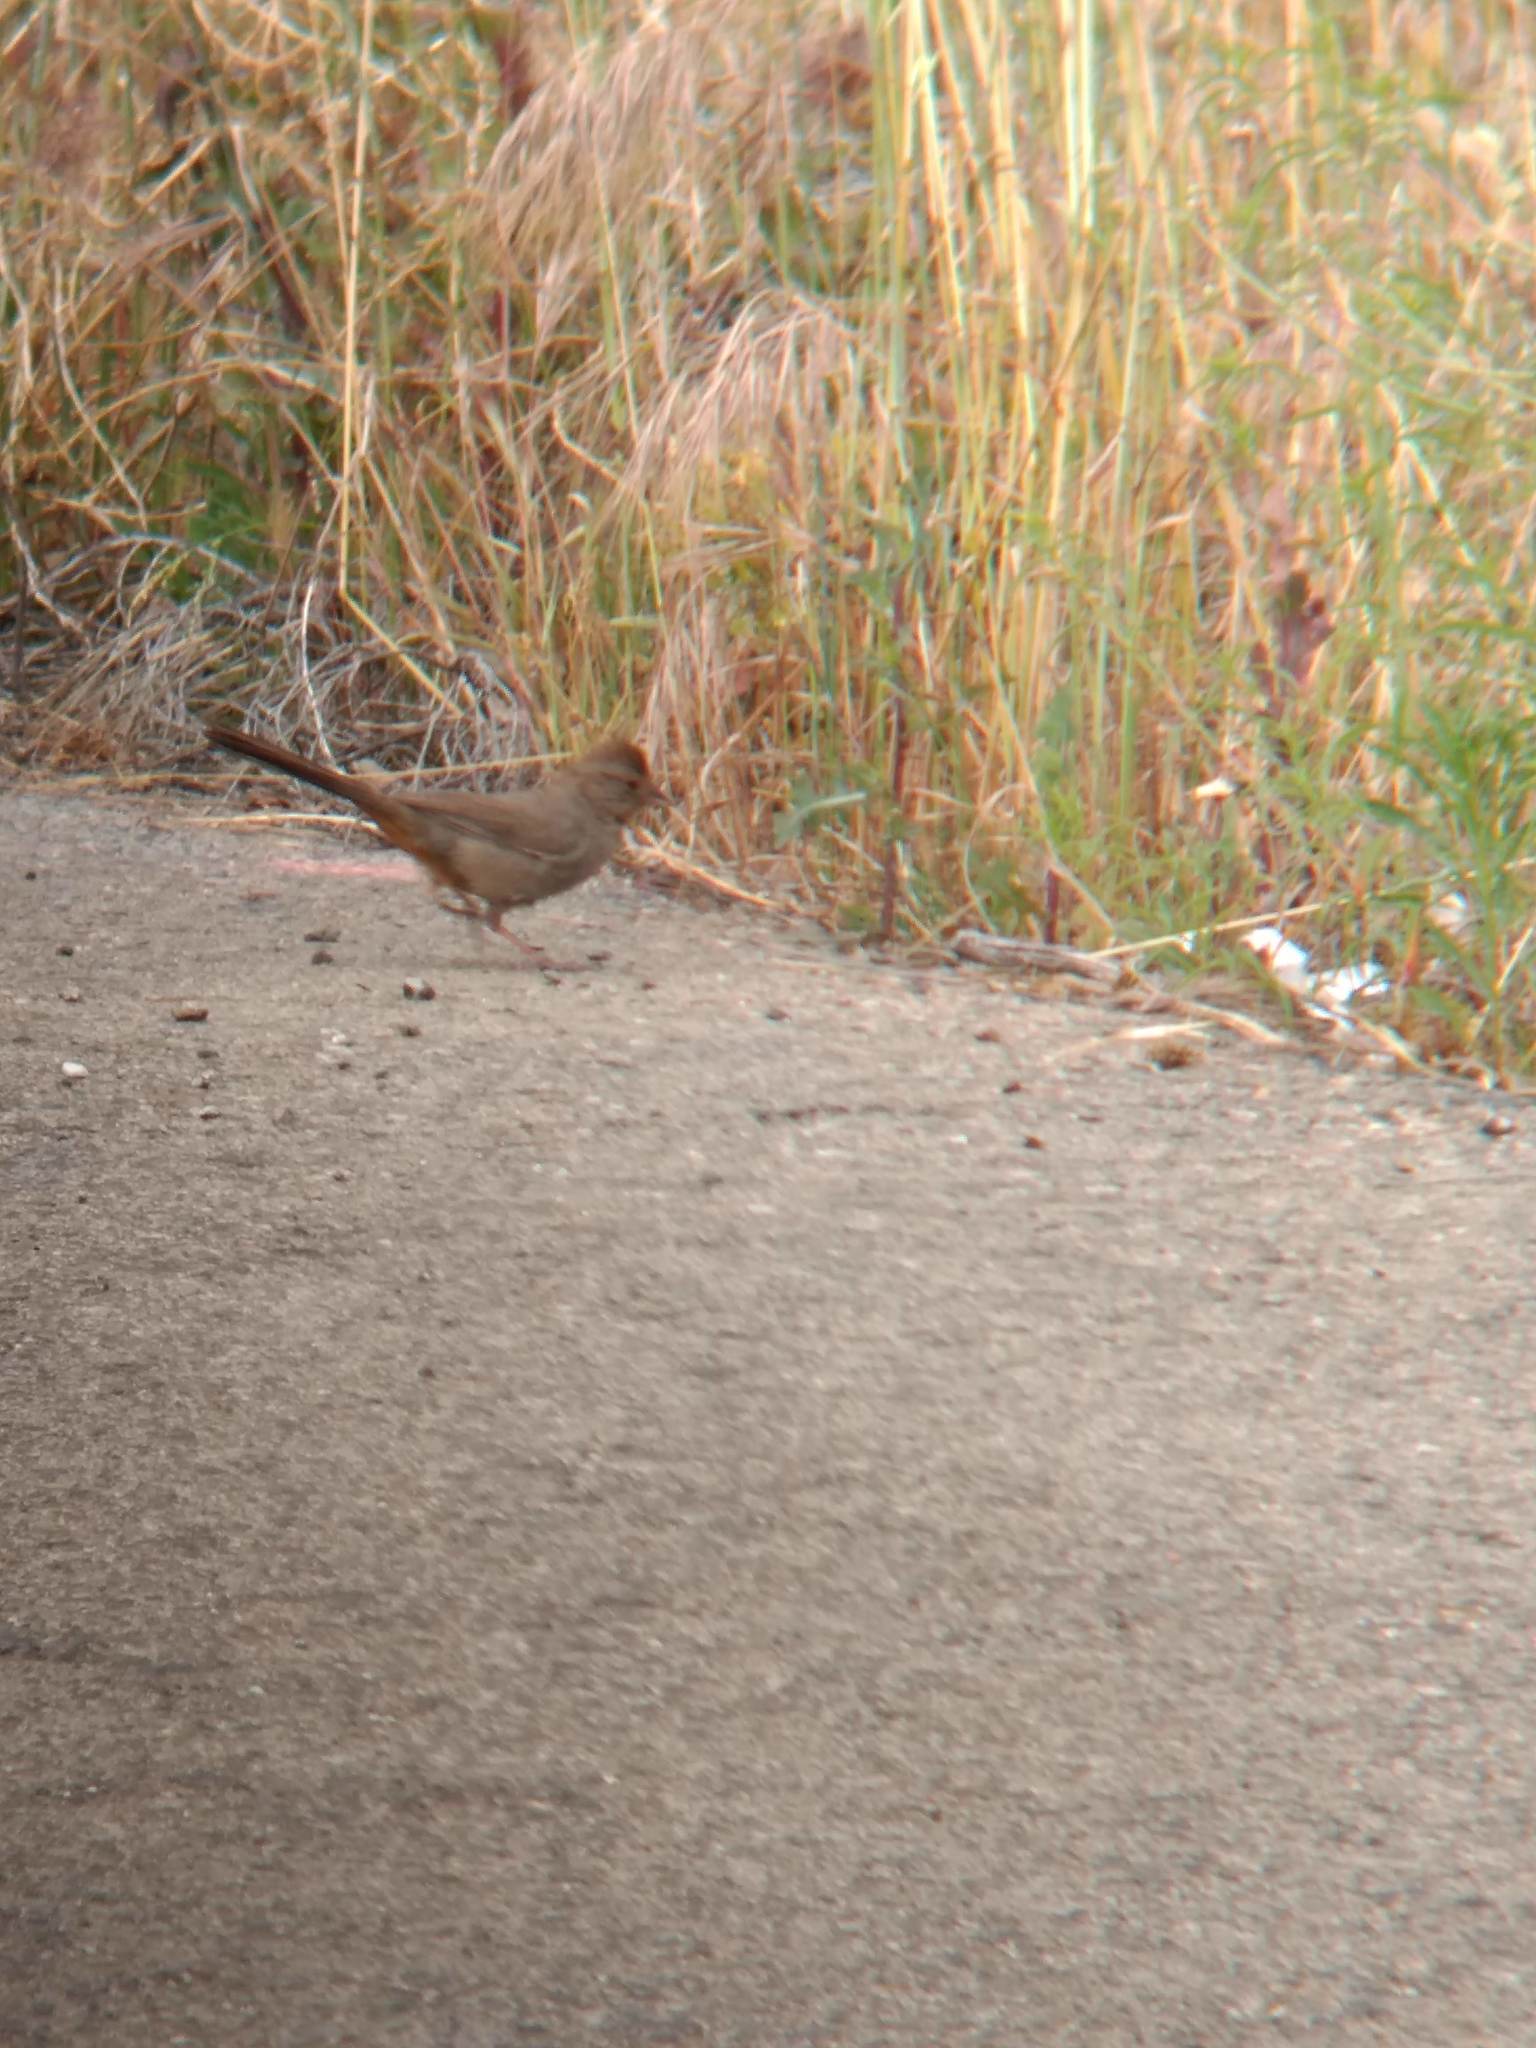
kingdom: Animalia
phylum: Chordata
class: Aves
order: Passeriformes
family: Passerellidae
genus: Melozone
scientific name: Melozone crissalis
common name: California towhee
